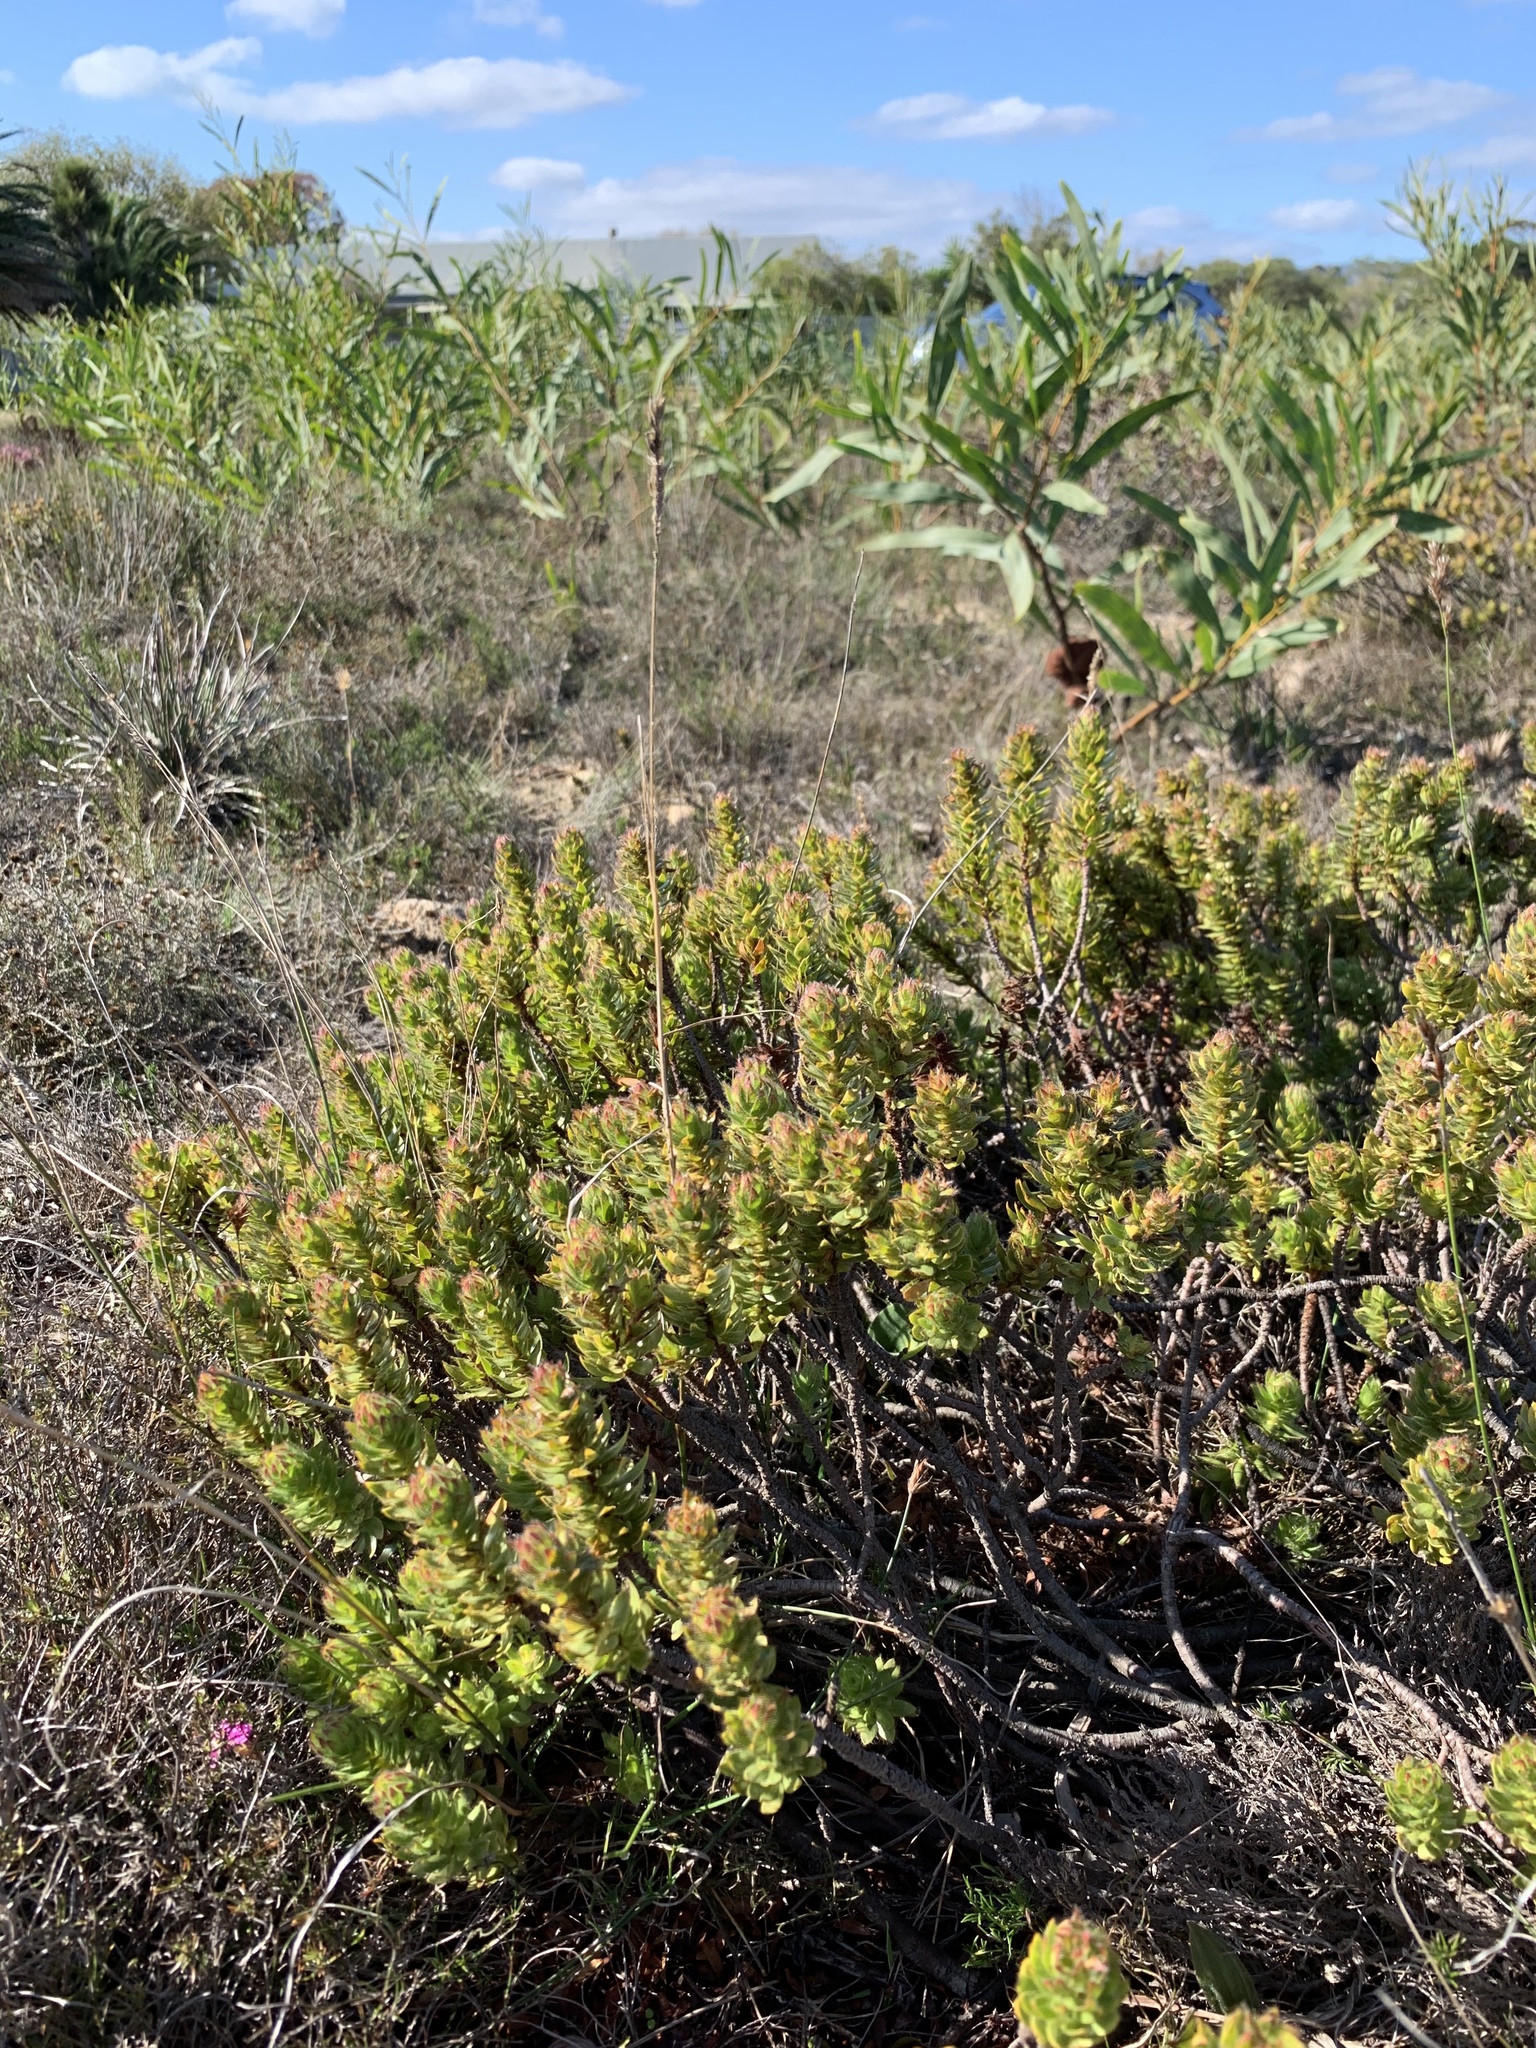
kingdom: Plantae
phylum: Tracheophyta
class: Magnoliopsida
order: Malvales
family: Thymelaeaceae
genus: Gnidia
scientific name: Gnidia ornata
